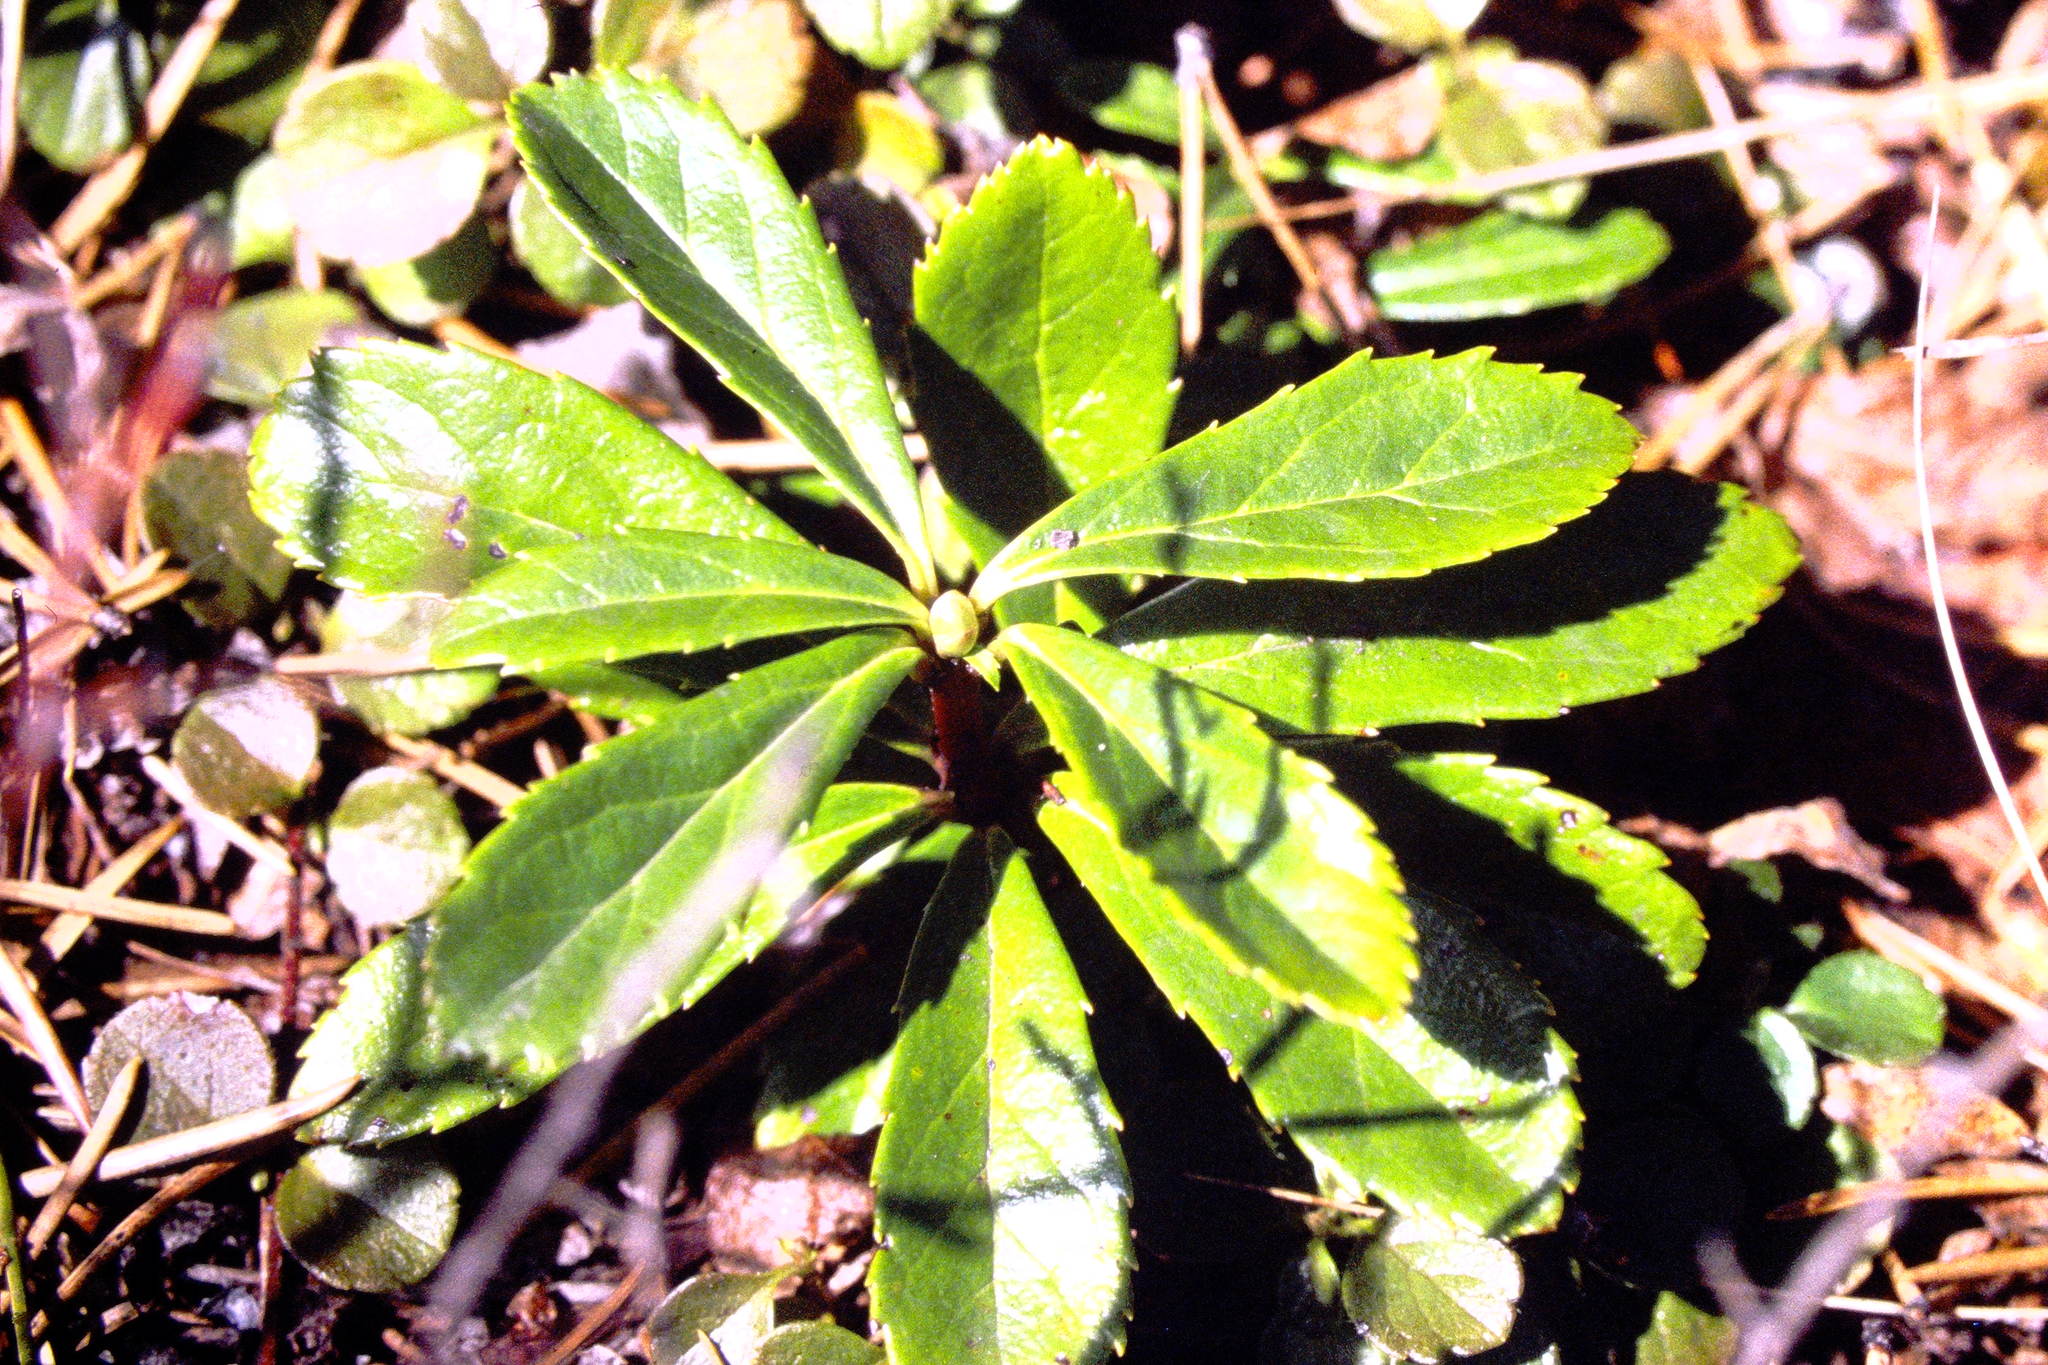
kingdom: Plantae
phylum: Tracheophyta
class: Magnoliopsida
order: Ericales
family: Ericaceae
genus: Chimaphila
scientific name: Chimaphila umbellata
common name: Pipsissewa
